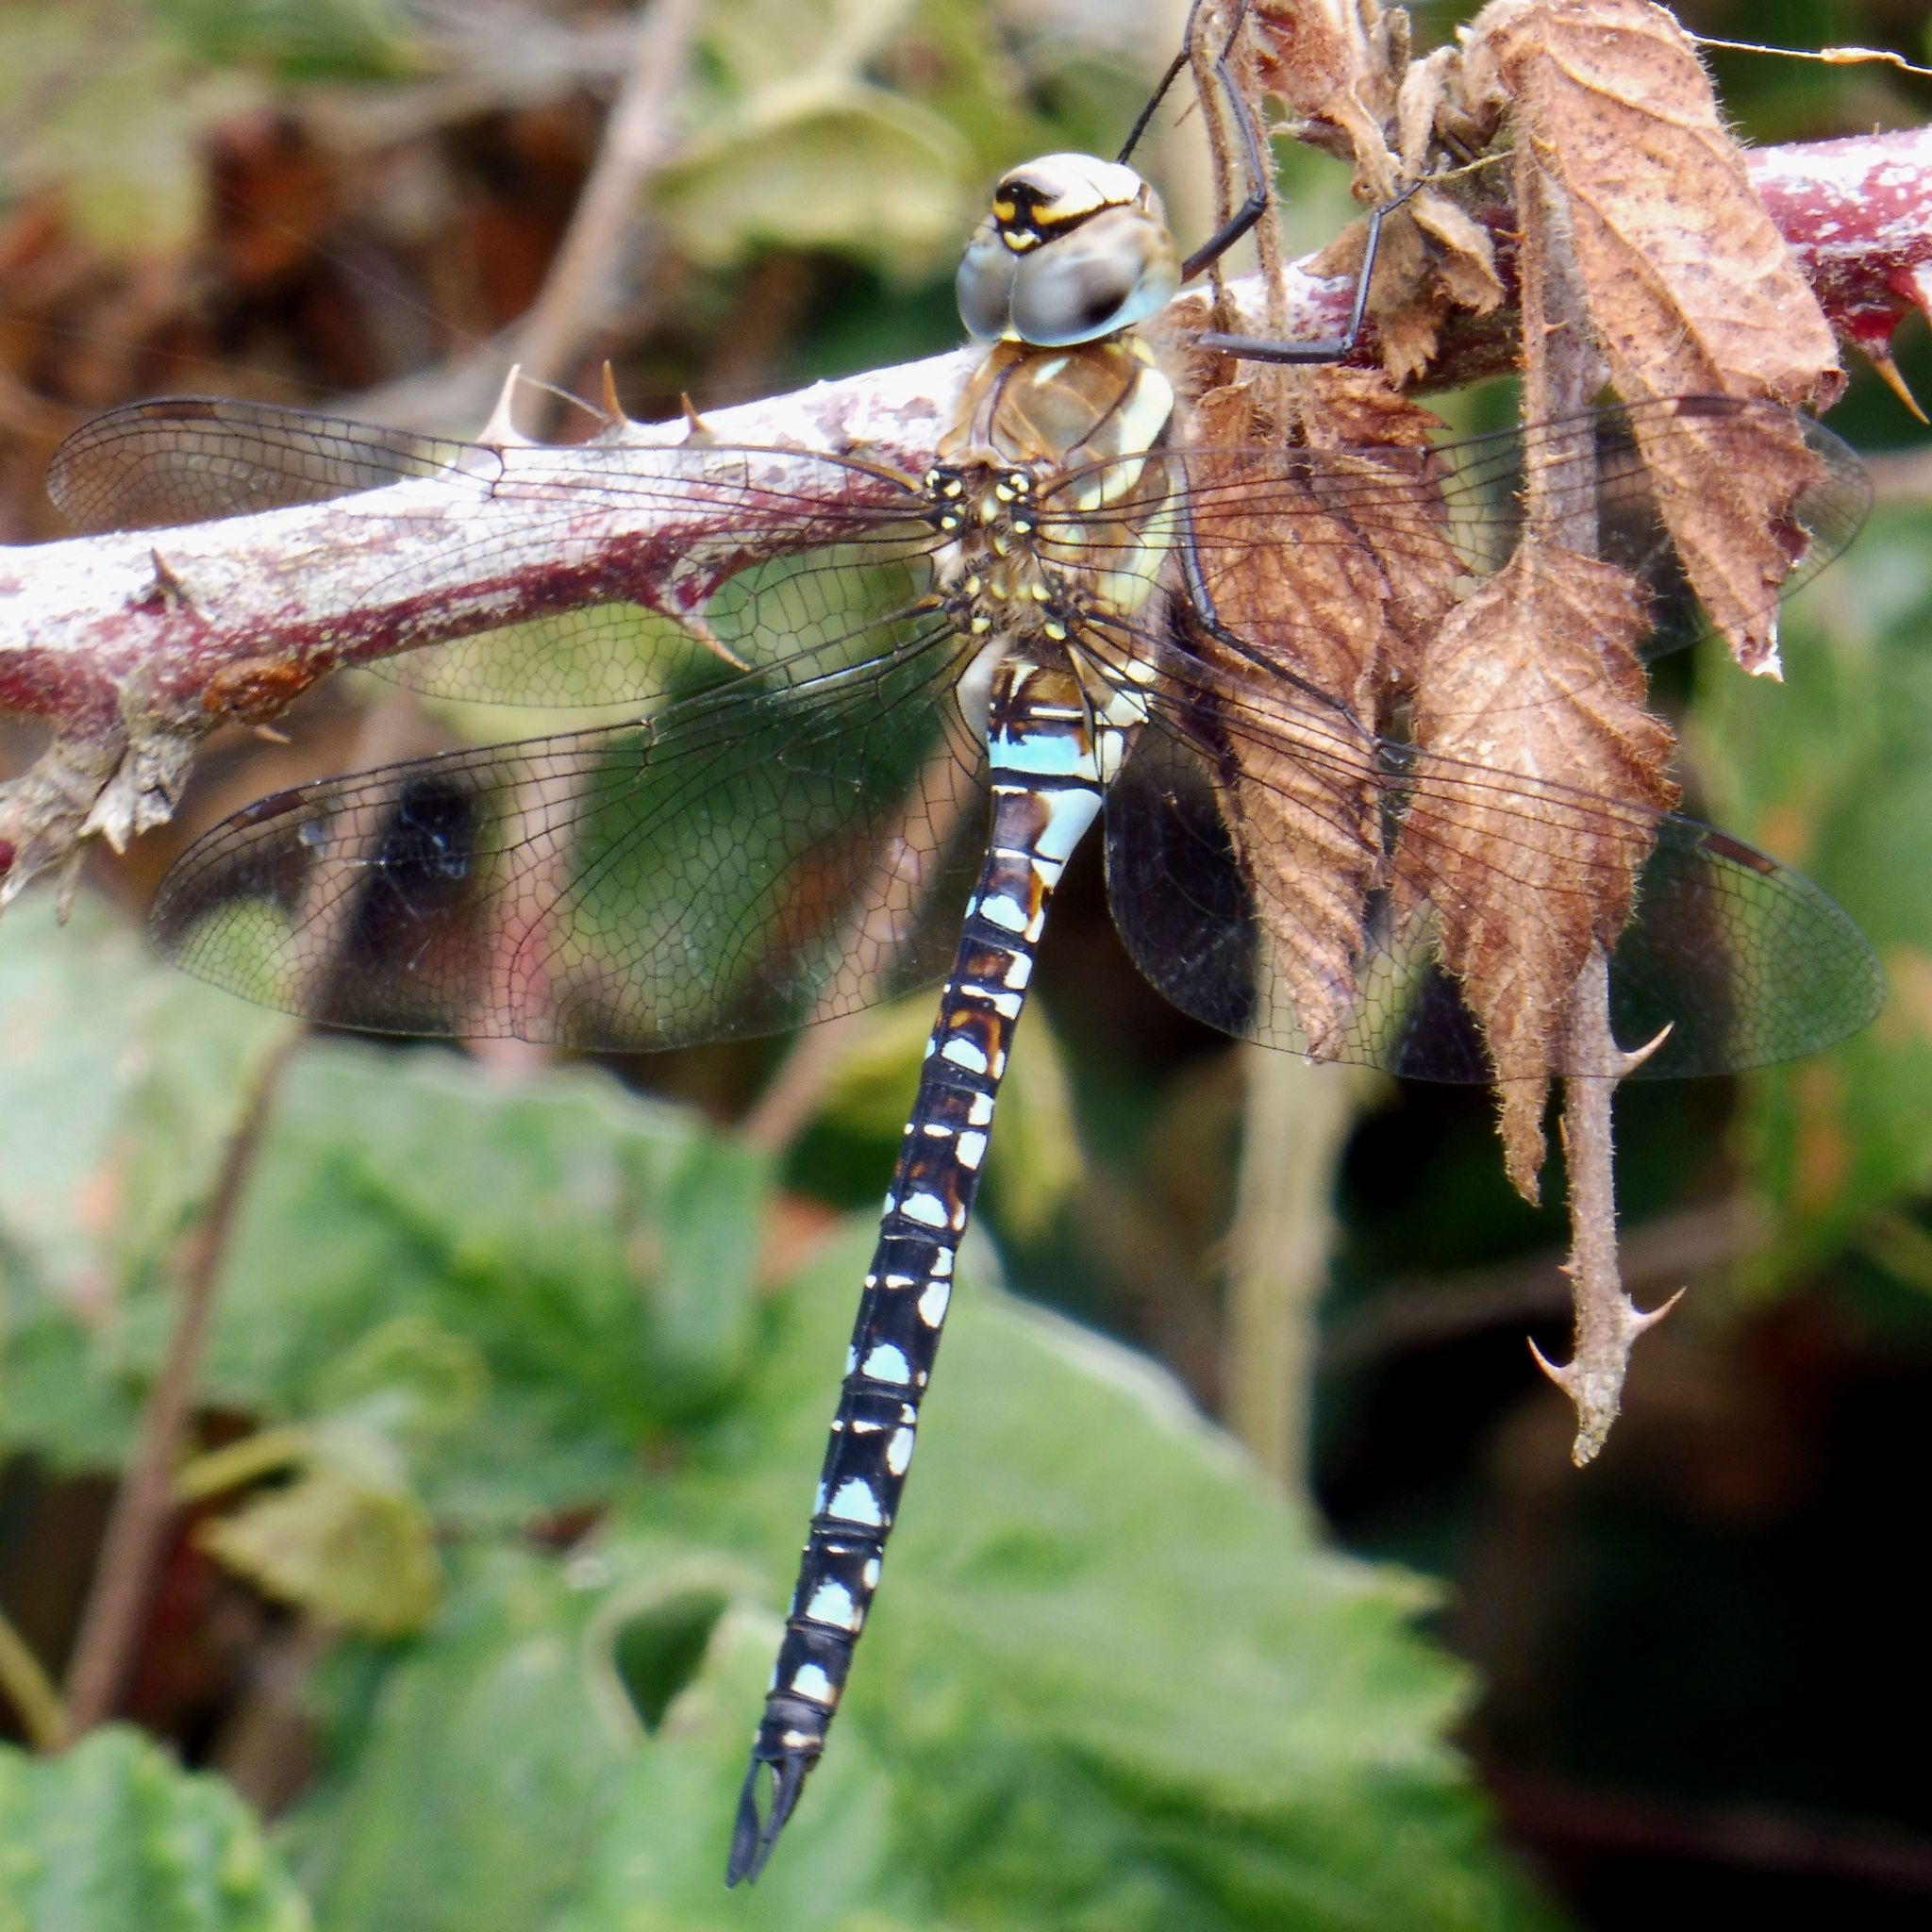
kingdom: Animalia
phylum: Arthropoda
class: Insecta
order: Odonata
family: Aeshnidae
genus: Aeshna
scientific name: Aeshna mixta
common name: Migrant hawker
